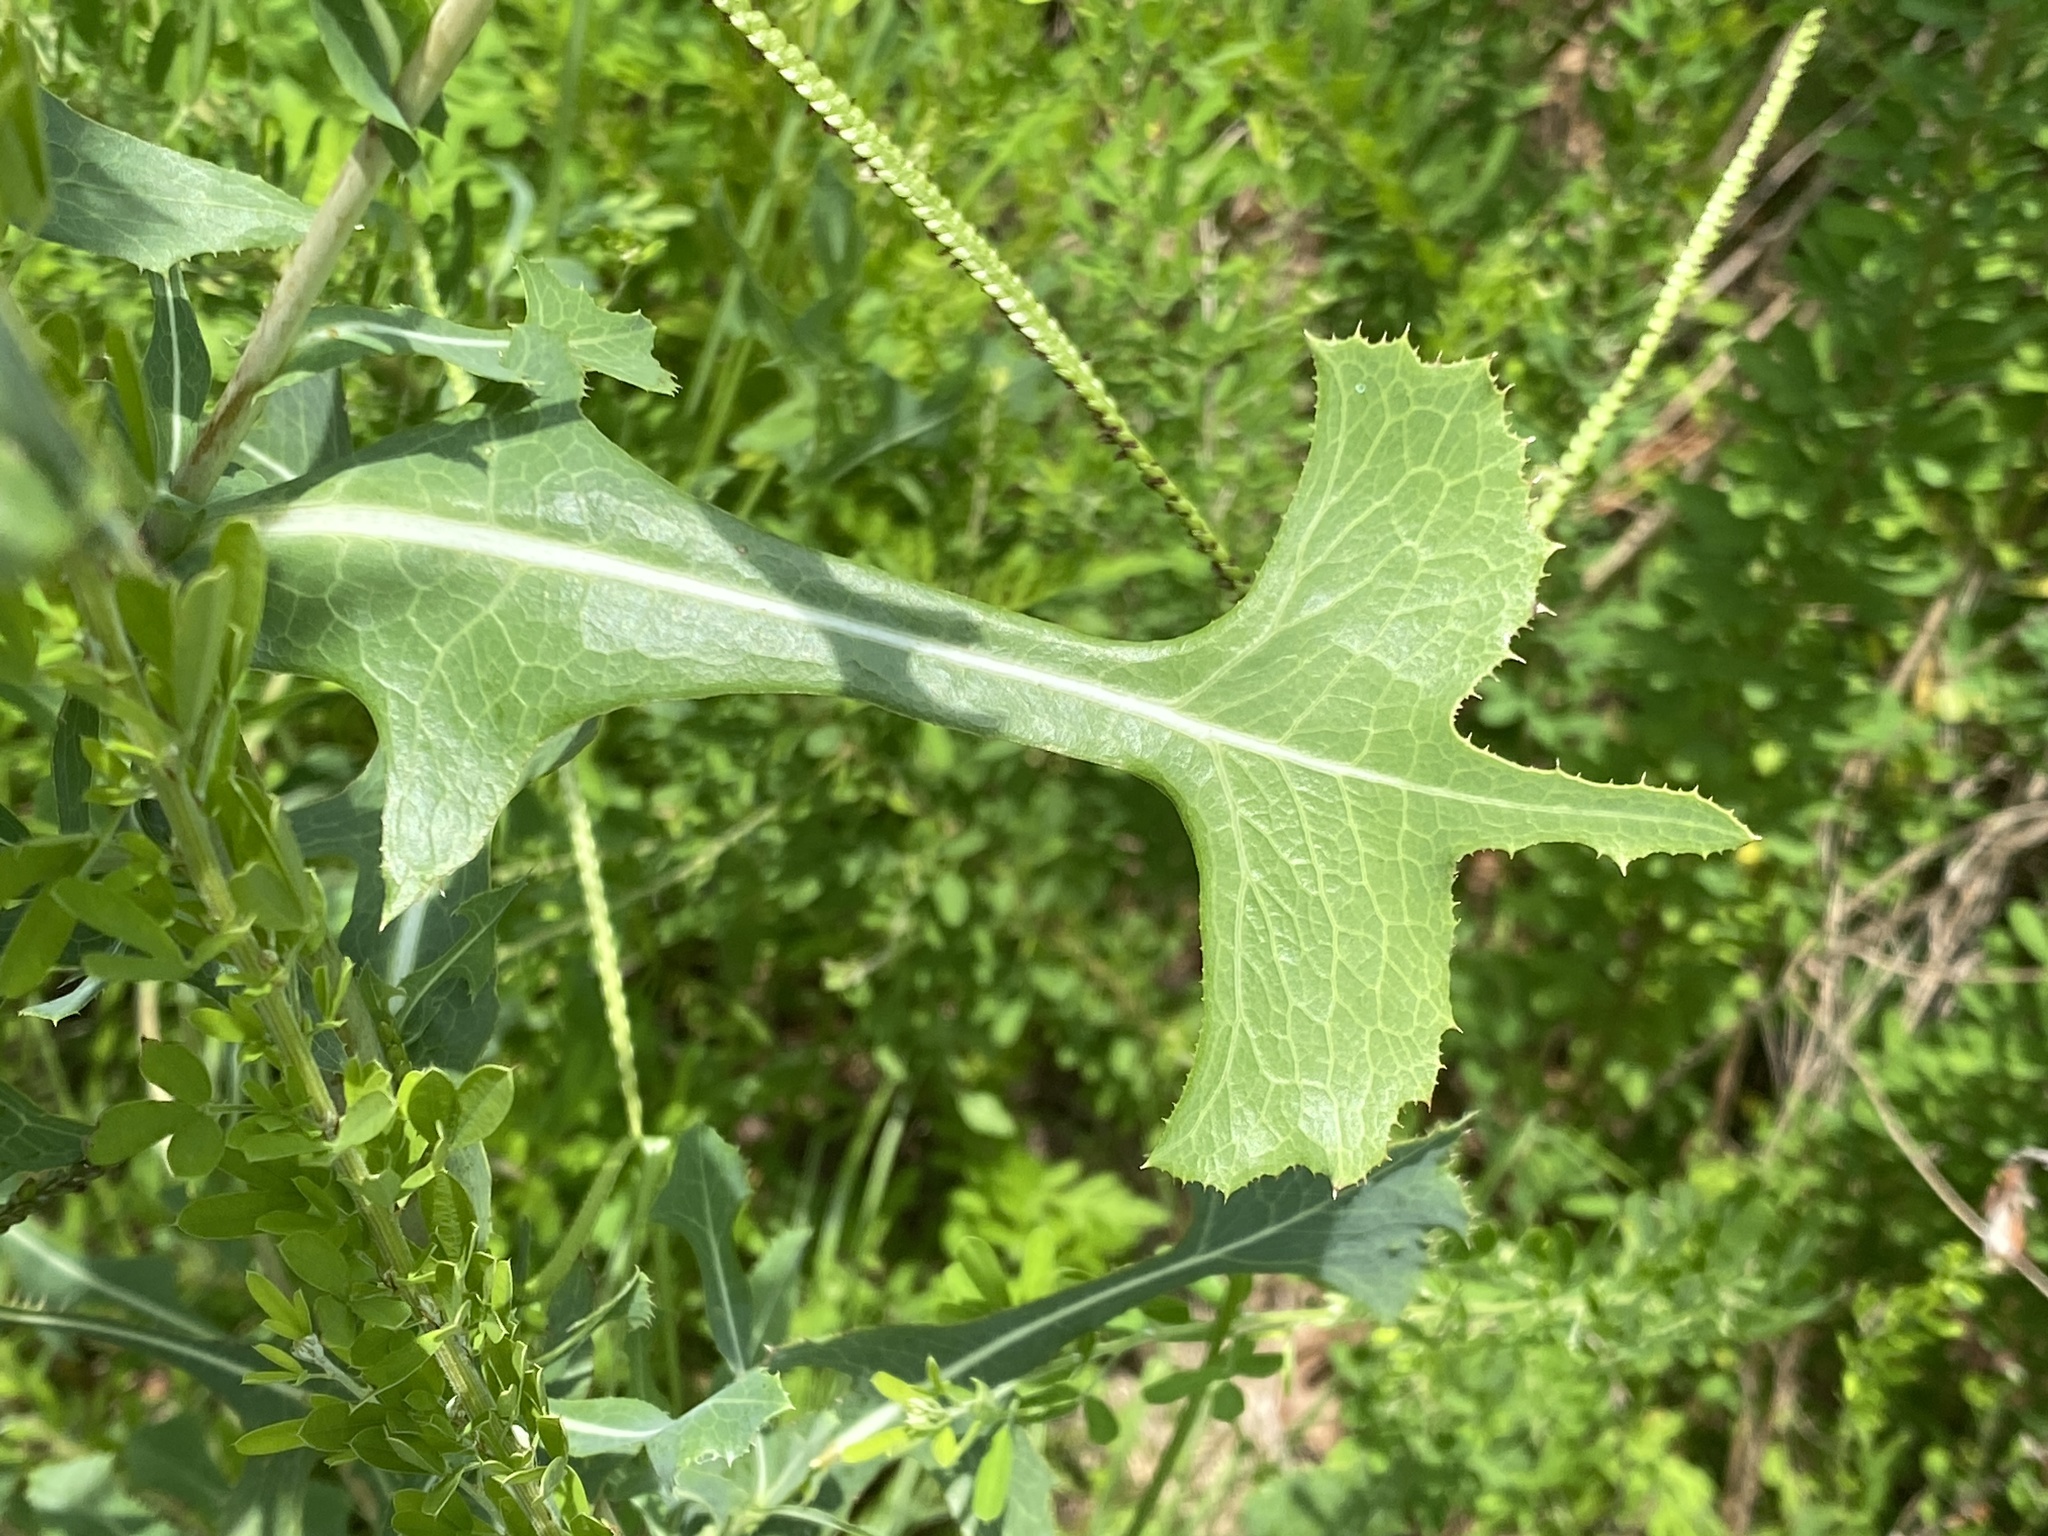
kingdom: Plantae
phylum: Tracheophyta
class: Magnoliopsida
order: Asterales
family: Asteraceae
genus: Lactuca
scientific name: Lactuca serriola
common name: Prickly lettuce
